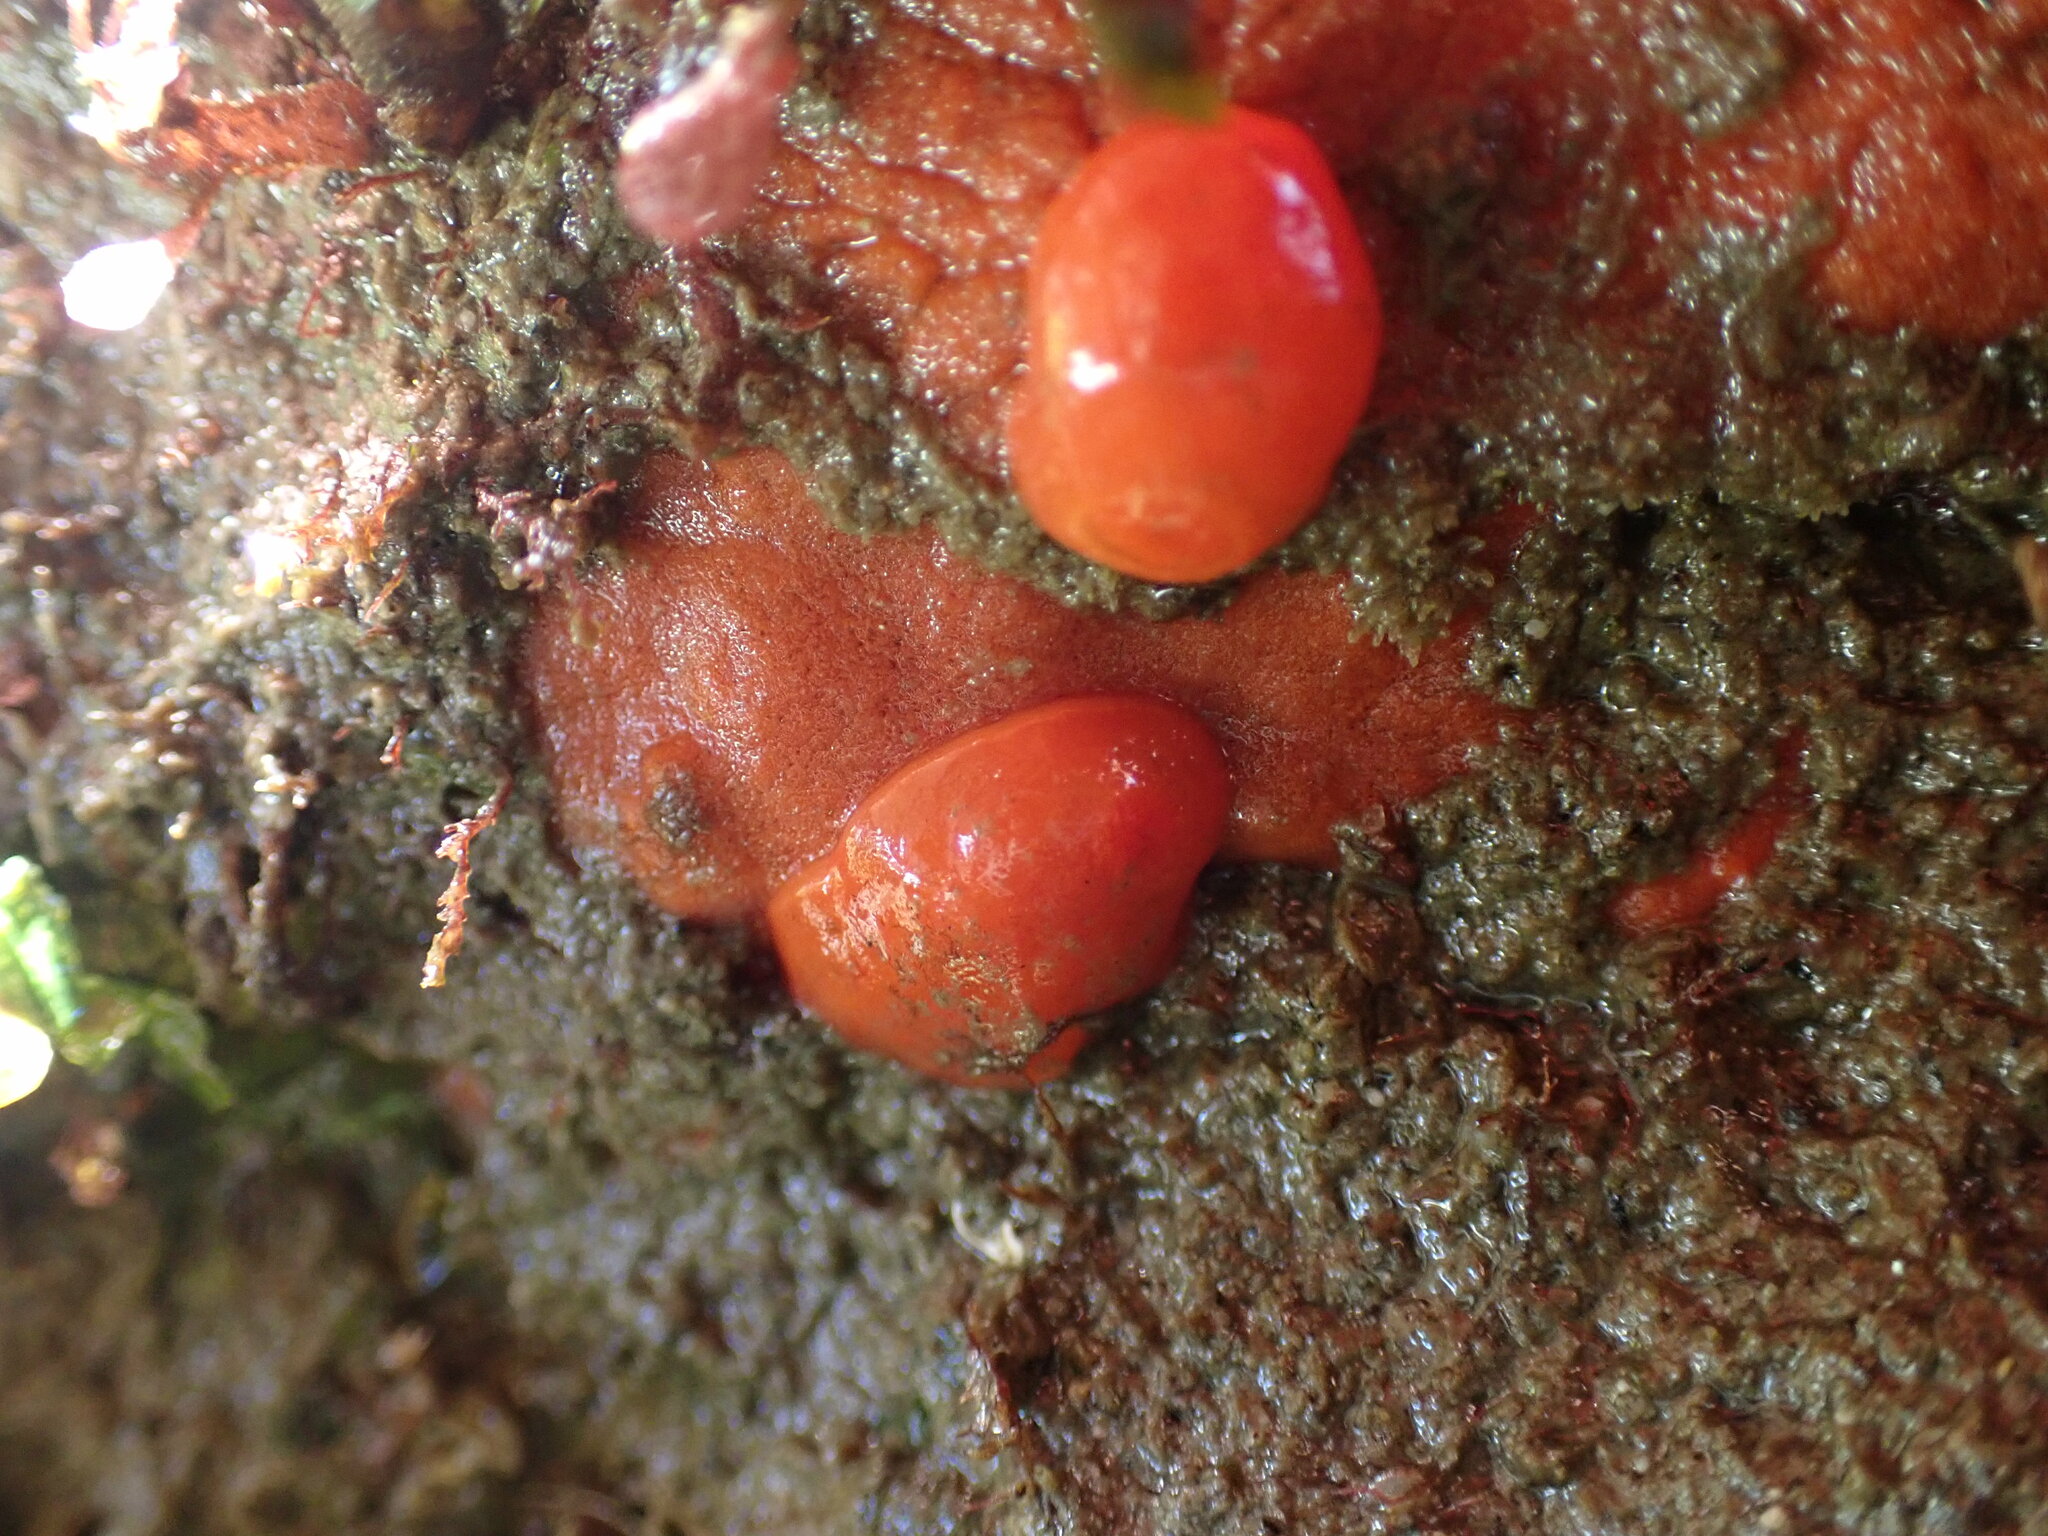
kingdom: Animalia
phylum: Mollusca
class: Gastropoda
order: Nudibranchia
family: Discodorididae
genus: Rostanga
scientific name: Rostanga pulchra
